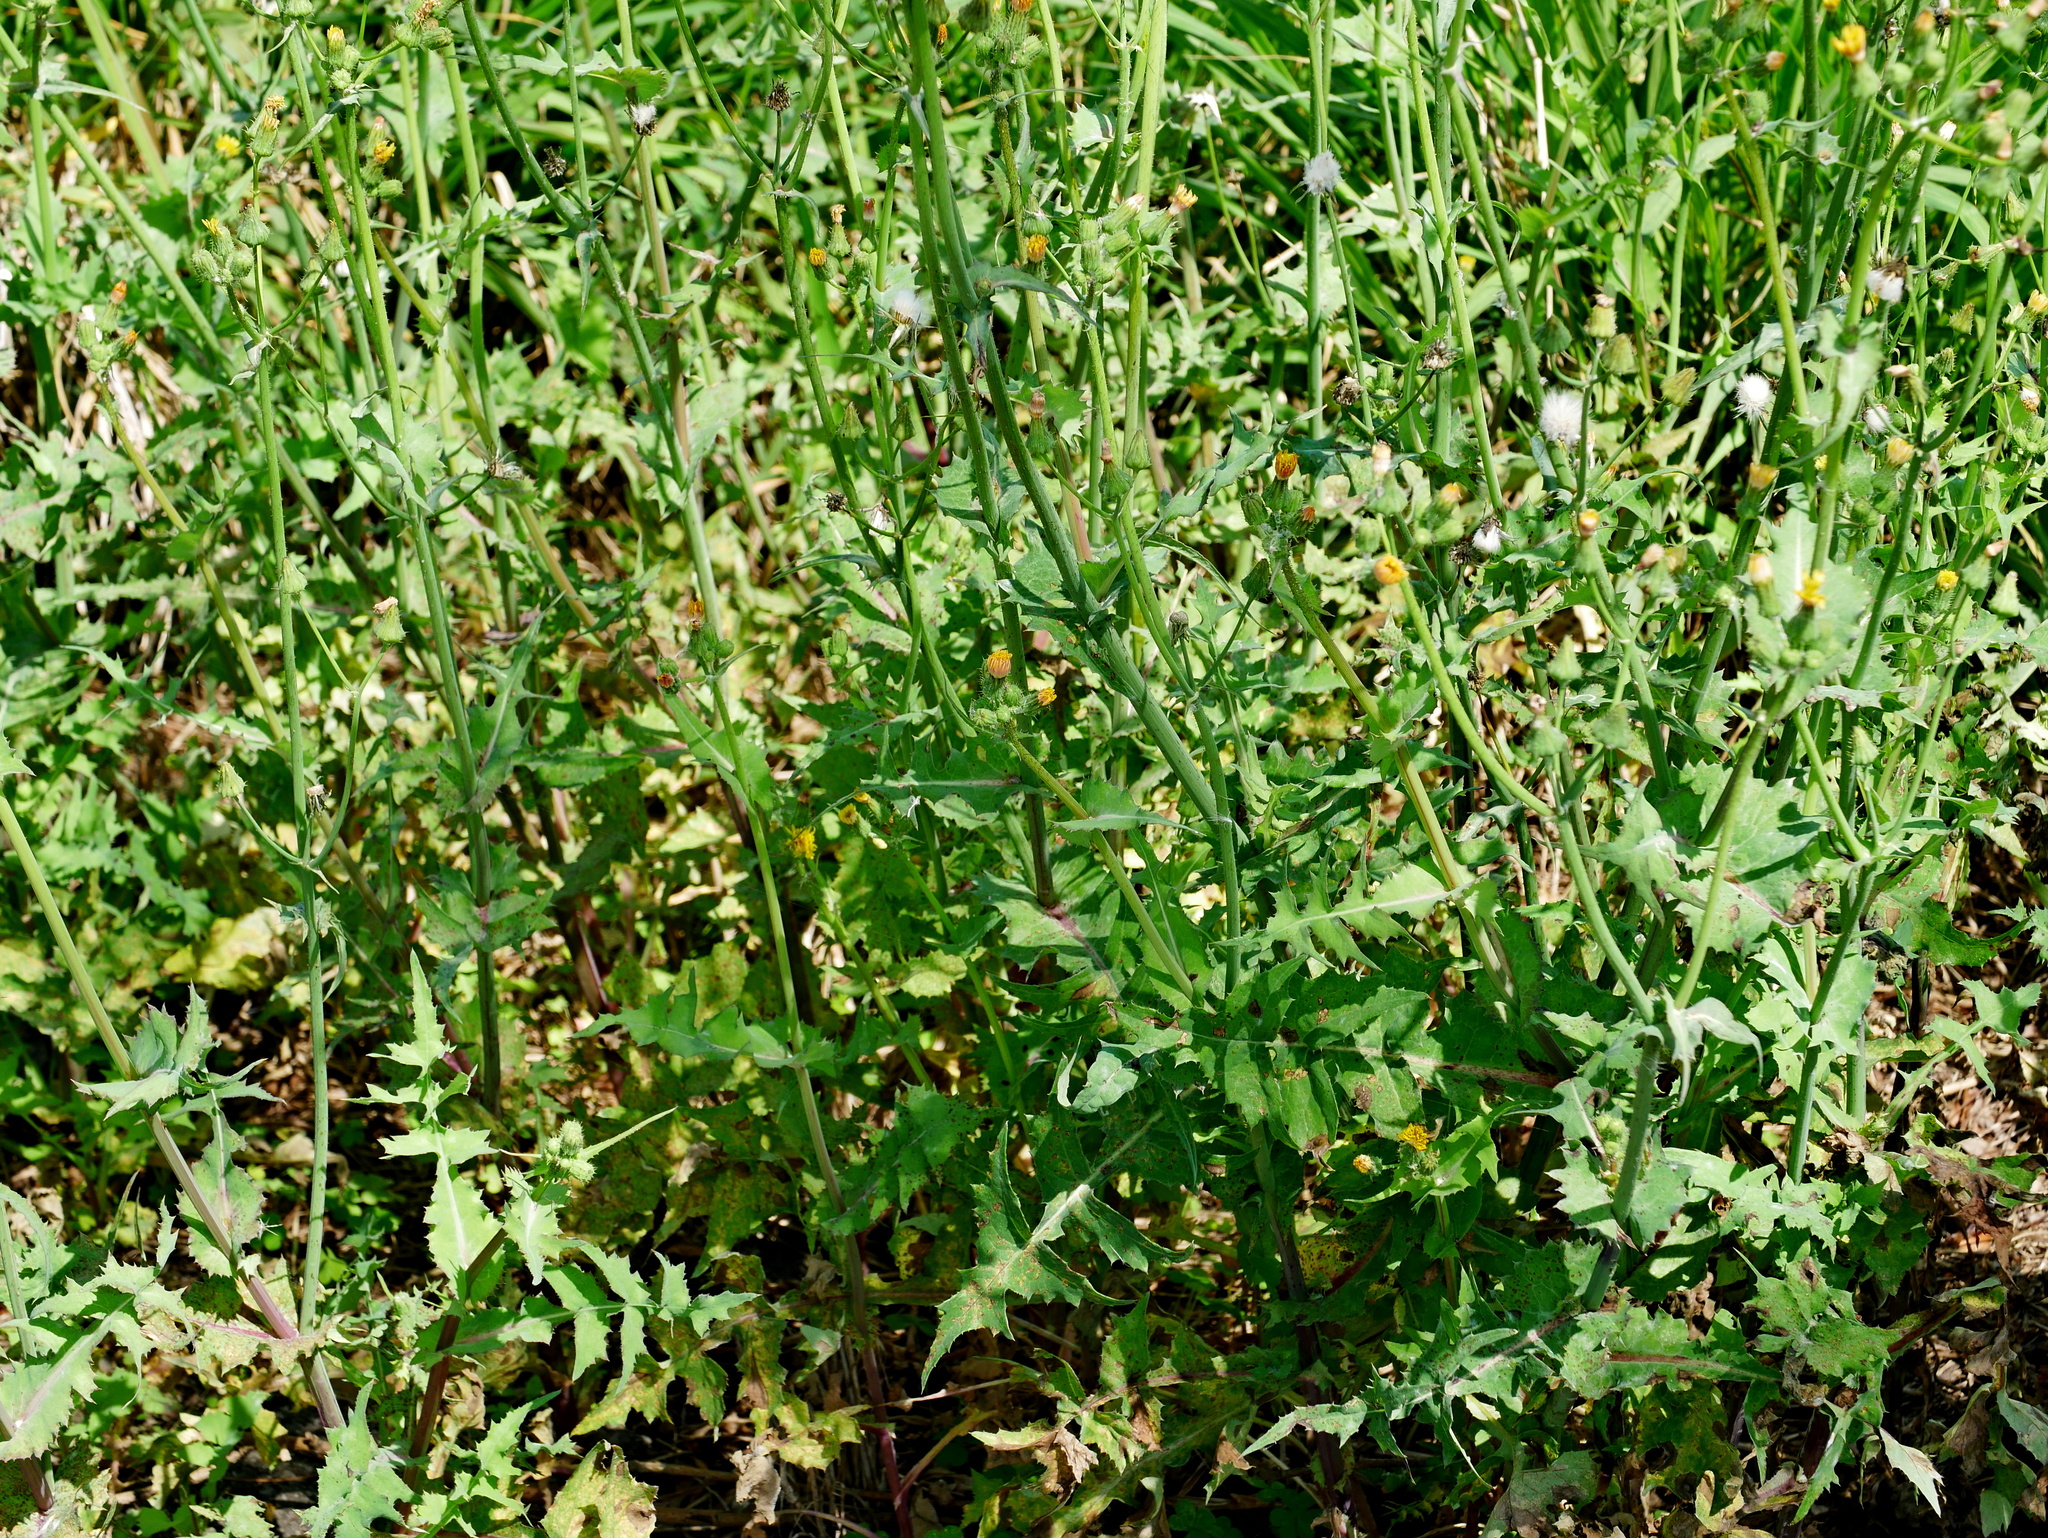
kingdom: Plantae
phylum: Tracheophyta
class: Magnoliopsida
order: Asterales
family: Asteraceae
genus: Sonchus
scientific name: Sonchus oleraceus
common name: Common sowthistle
